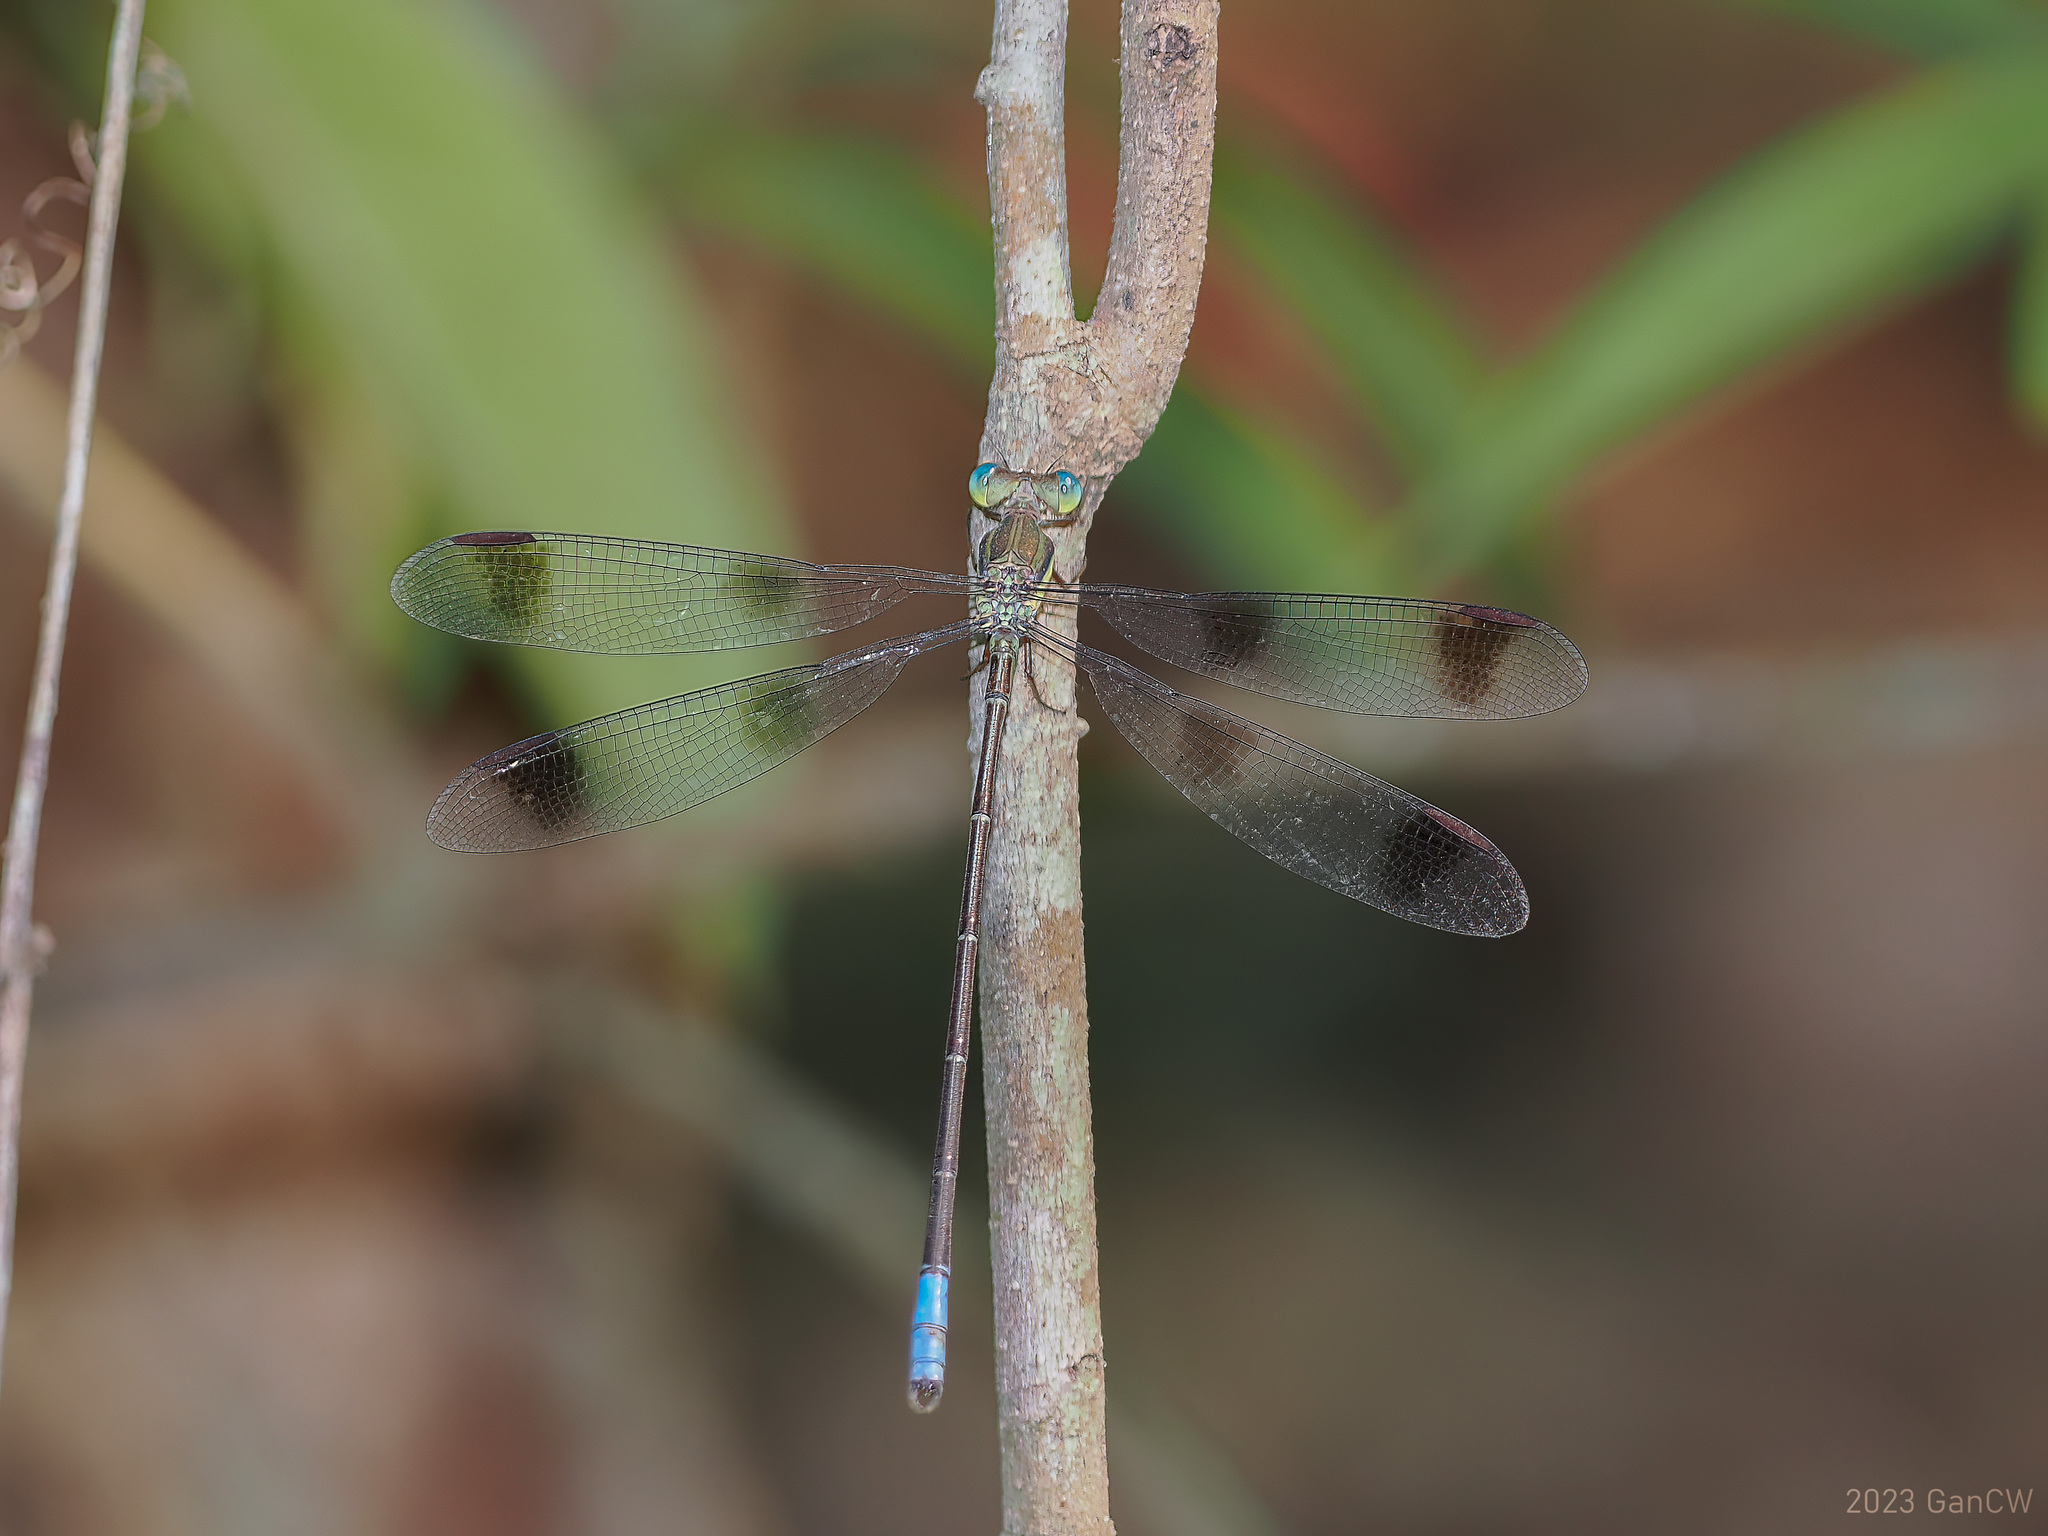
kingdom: Animalia
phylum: Arthropoda
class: Insecta
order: Odonata
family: Lestidae
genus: Orolestes
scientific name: Orolestes octomaculatus
